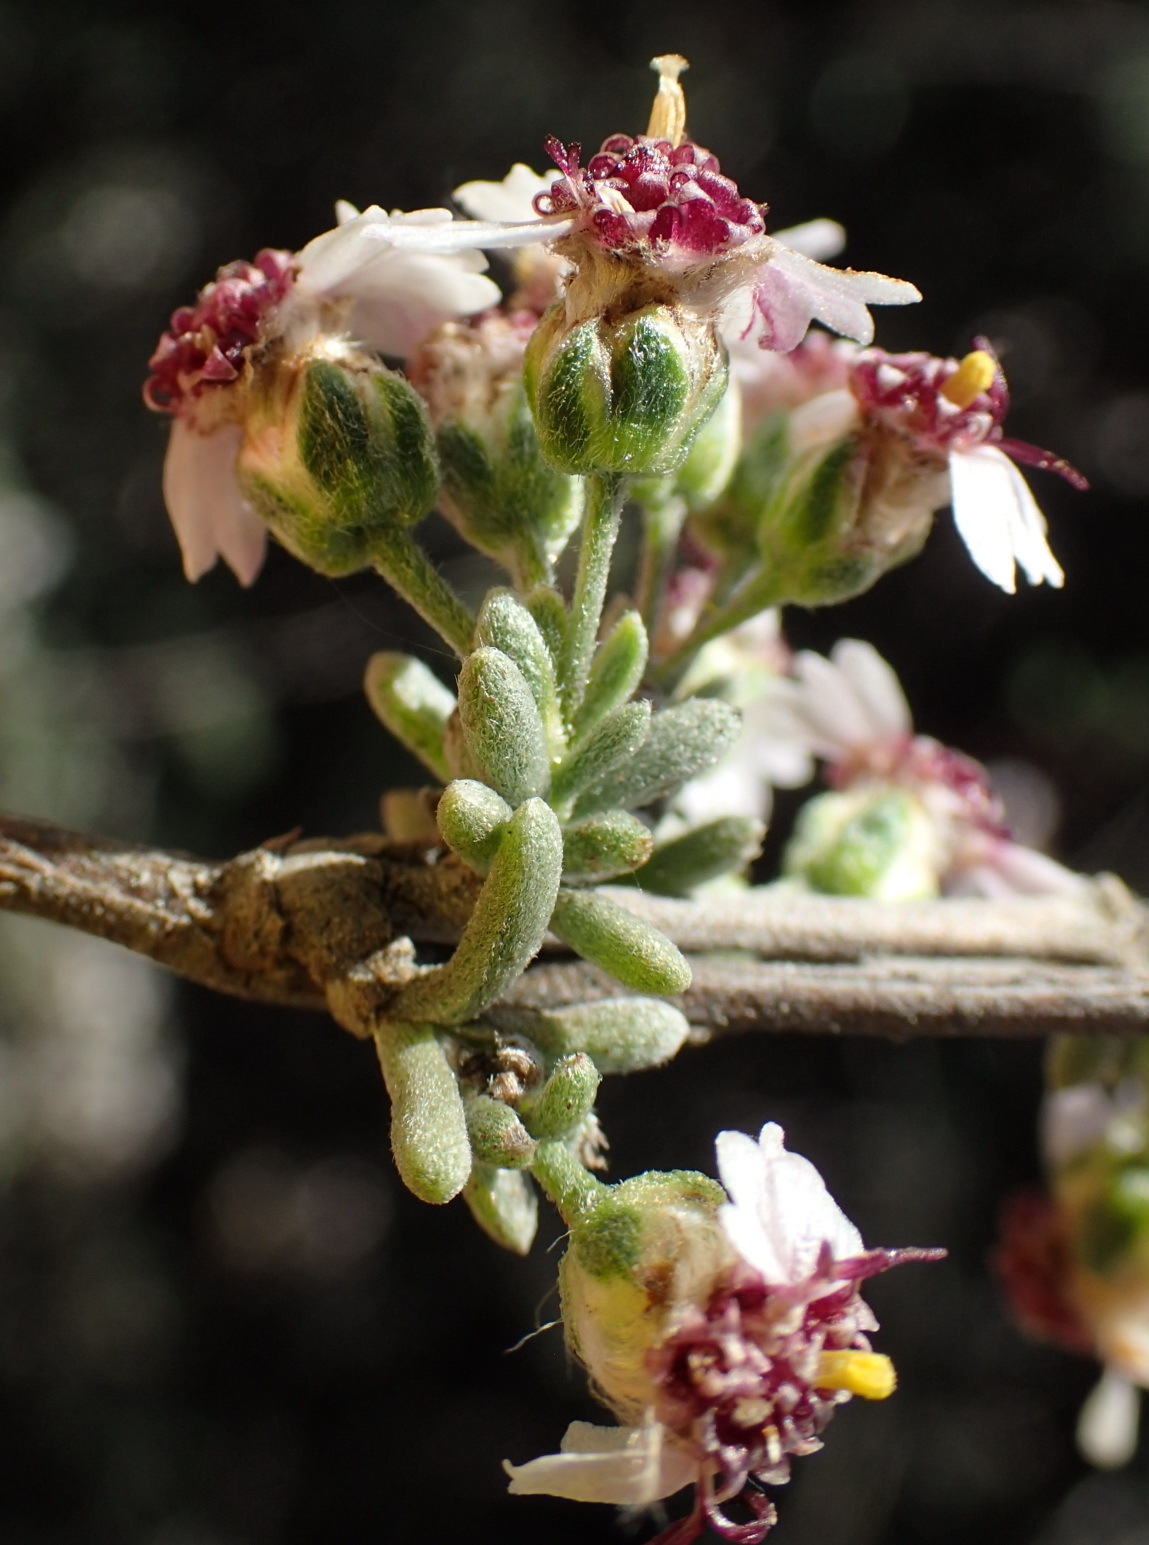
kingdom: Plantae
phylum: Tracheophyta
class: Magnoliopsida
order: Asterales
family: Asteraceae
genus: Eriocephalus
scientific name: Eriocephalus tenuipes
